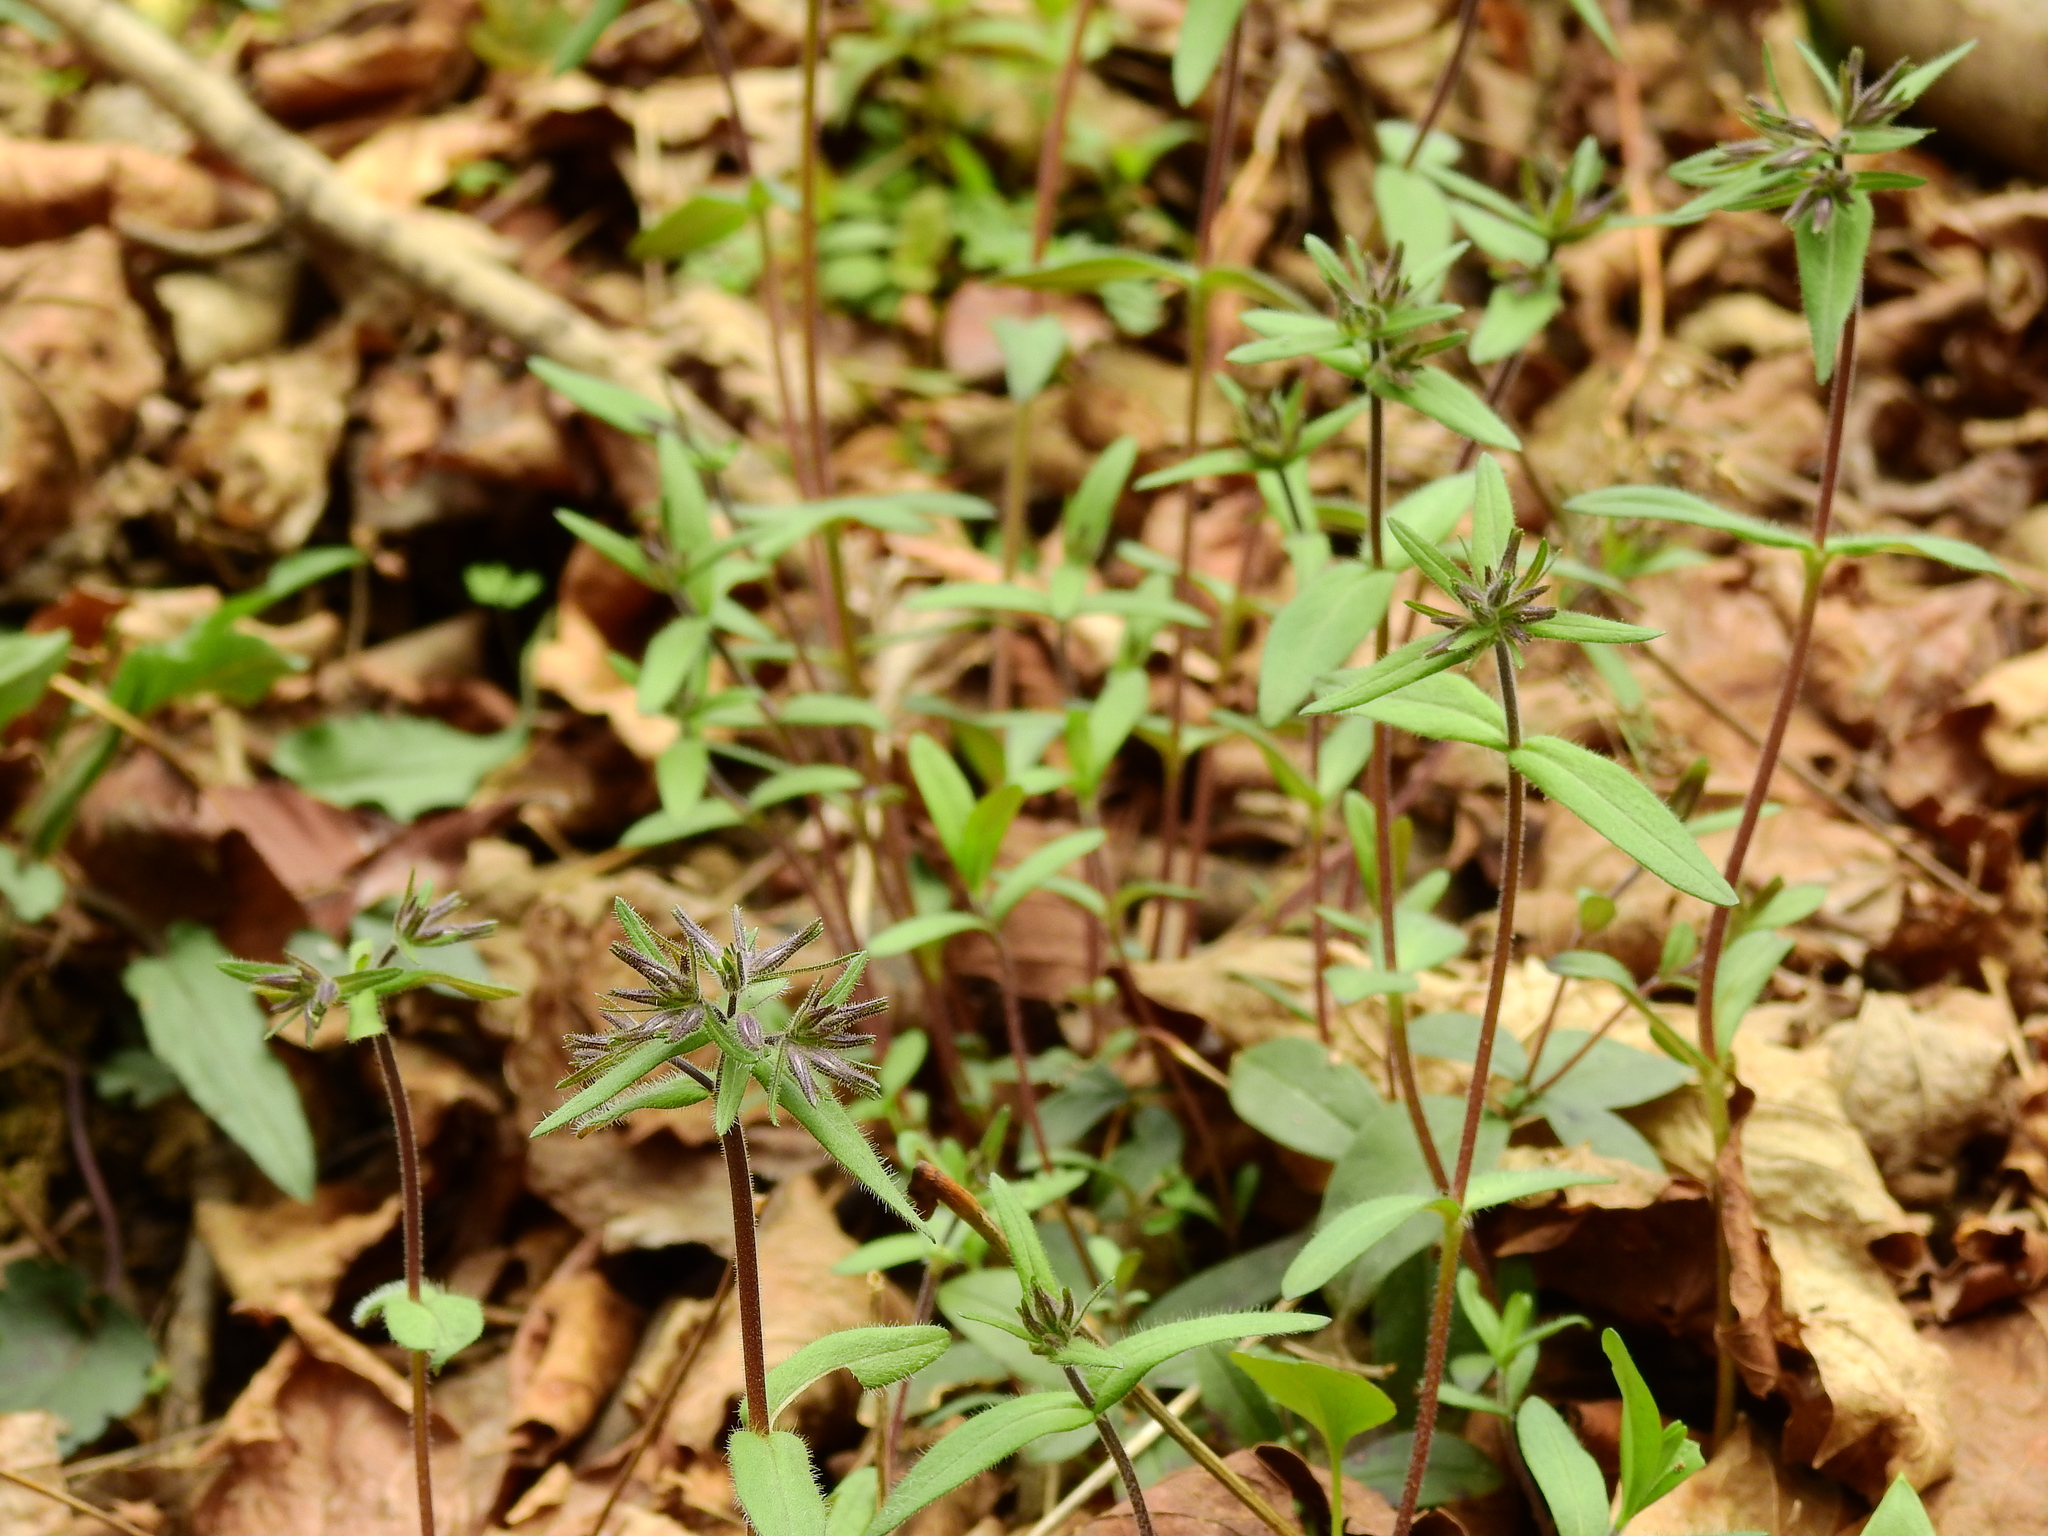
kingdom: Plantae
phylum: Tracheophyta
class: Magnoliopsida
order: Ericales
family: Polemoniaceae
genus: Phlox
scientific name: Phlox divaricata
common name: Blue phlox
